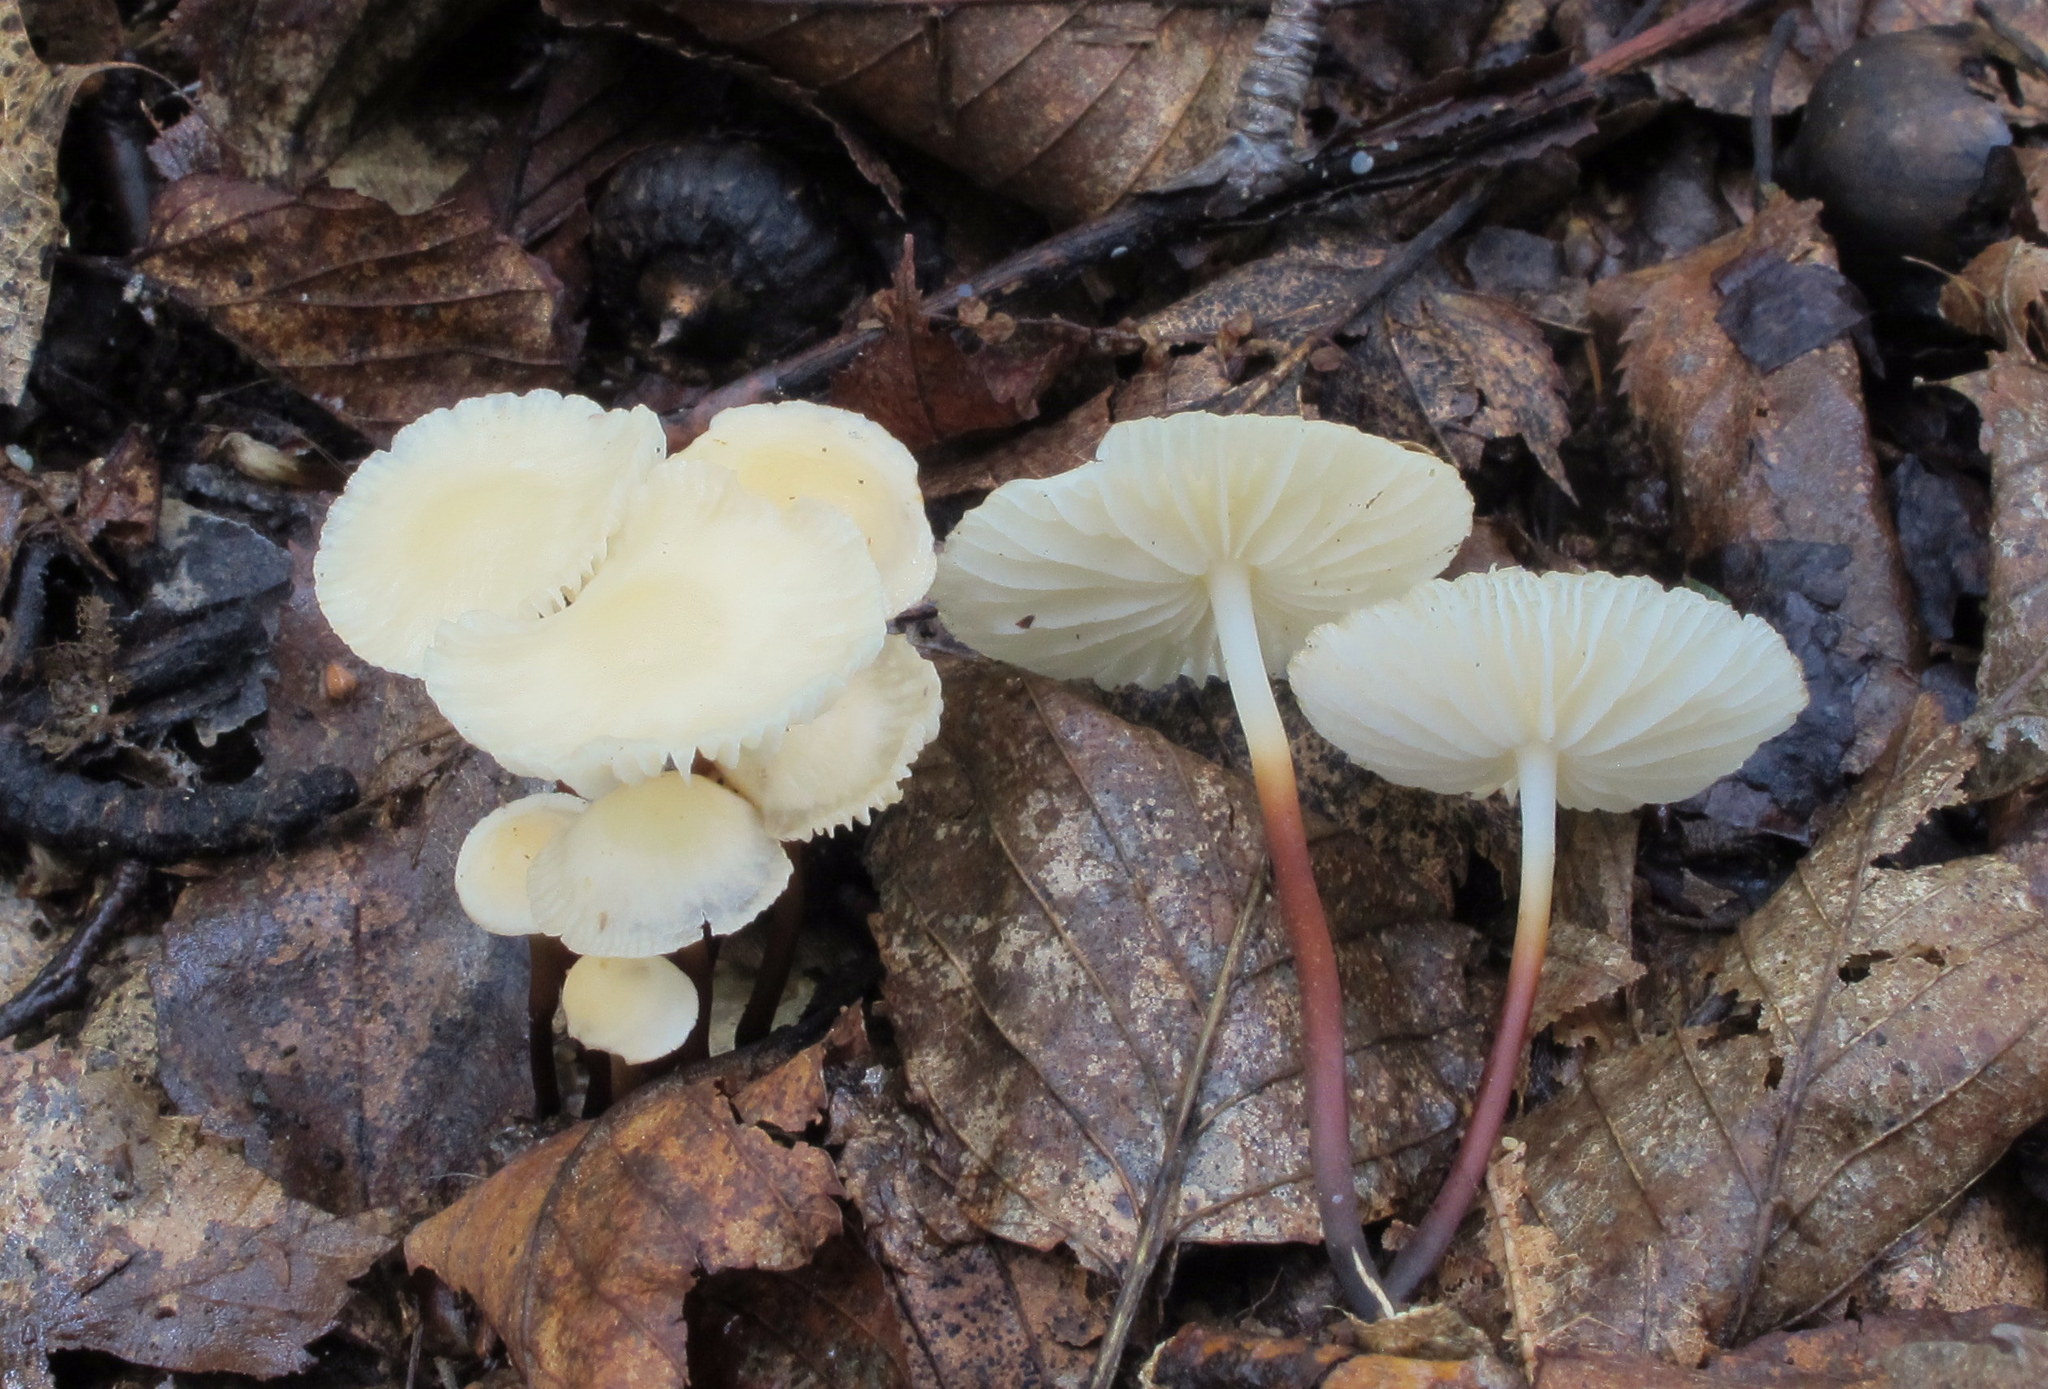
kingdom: Fungi
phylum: Basidiomycota
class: Agaricomycetes
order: Agaricales
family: Marasmiaceae
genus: Marasmius
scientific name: Marasmius delectans
